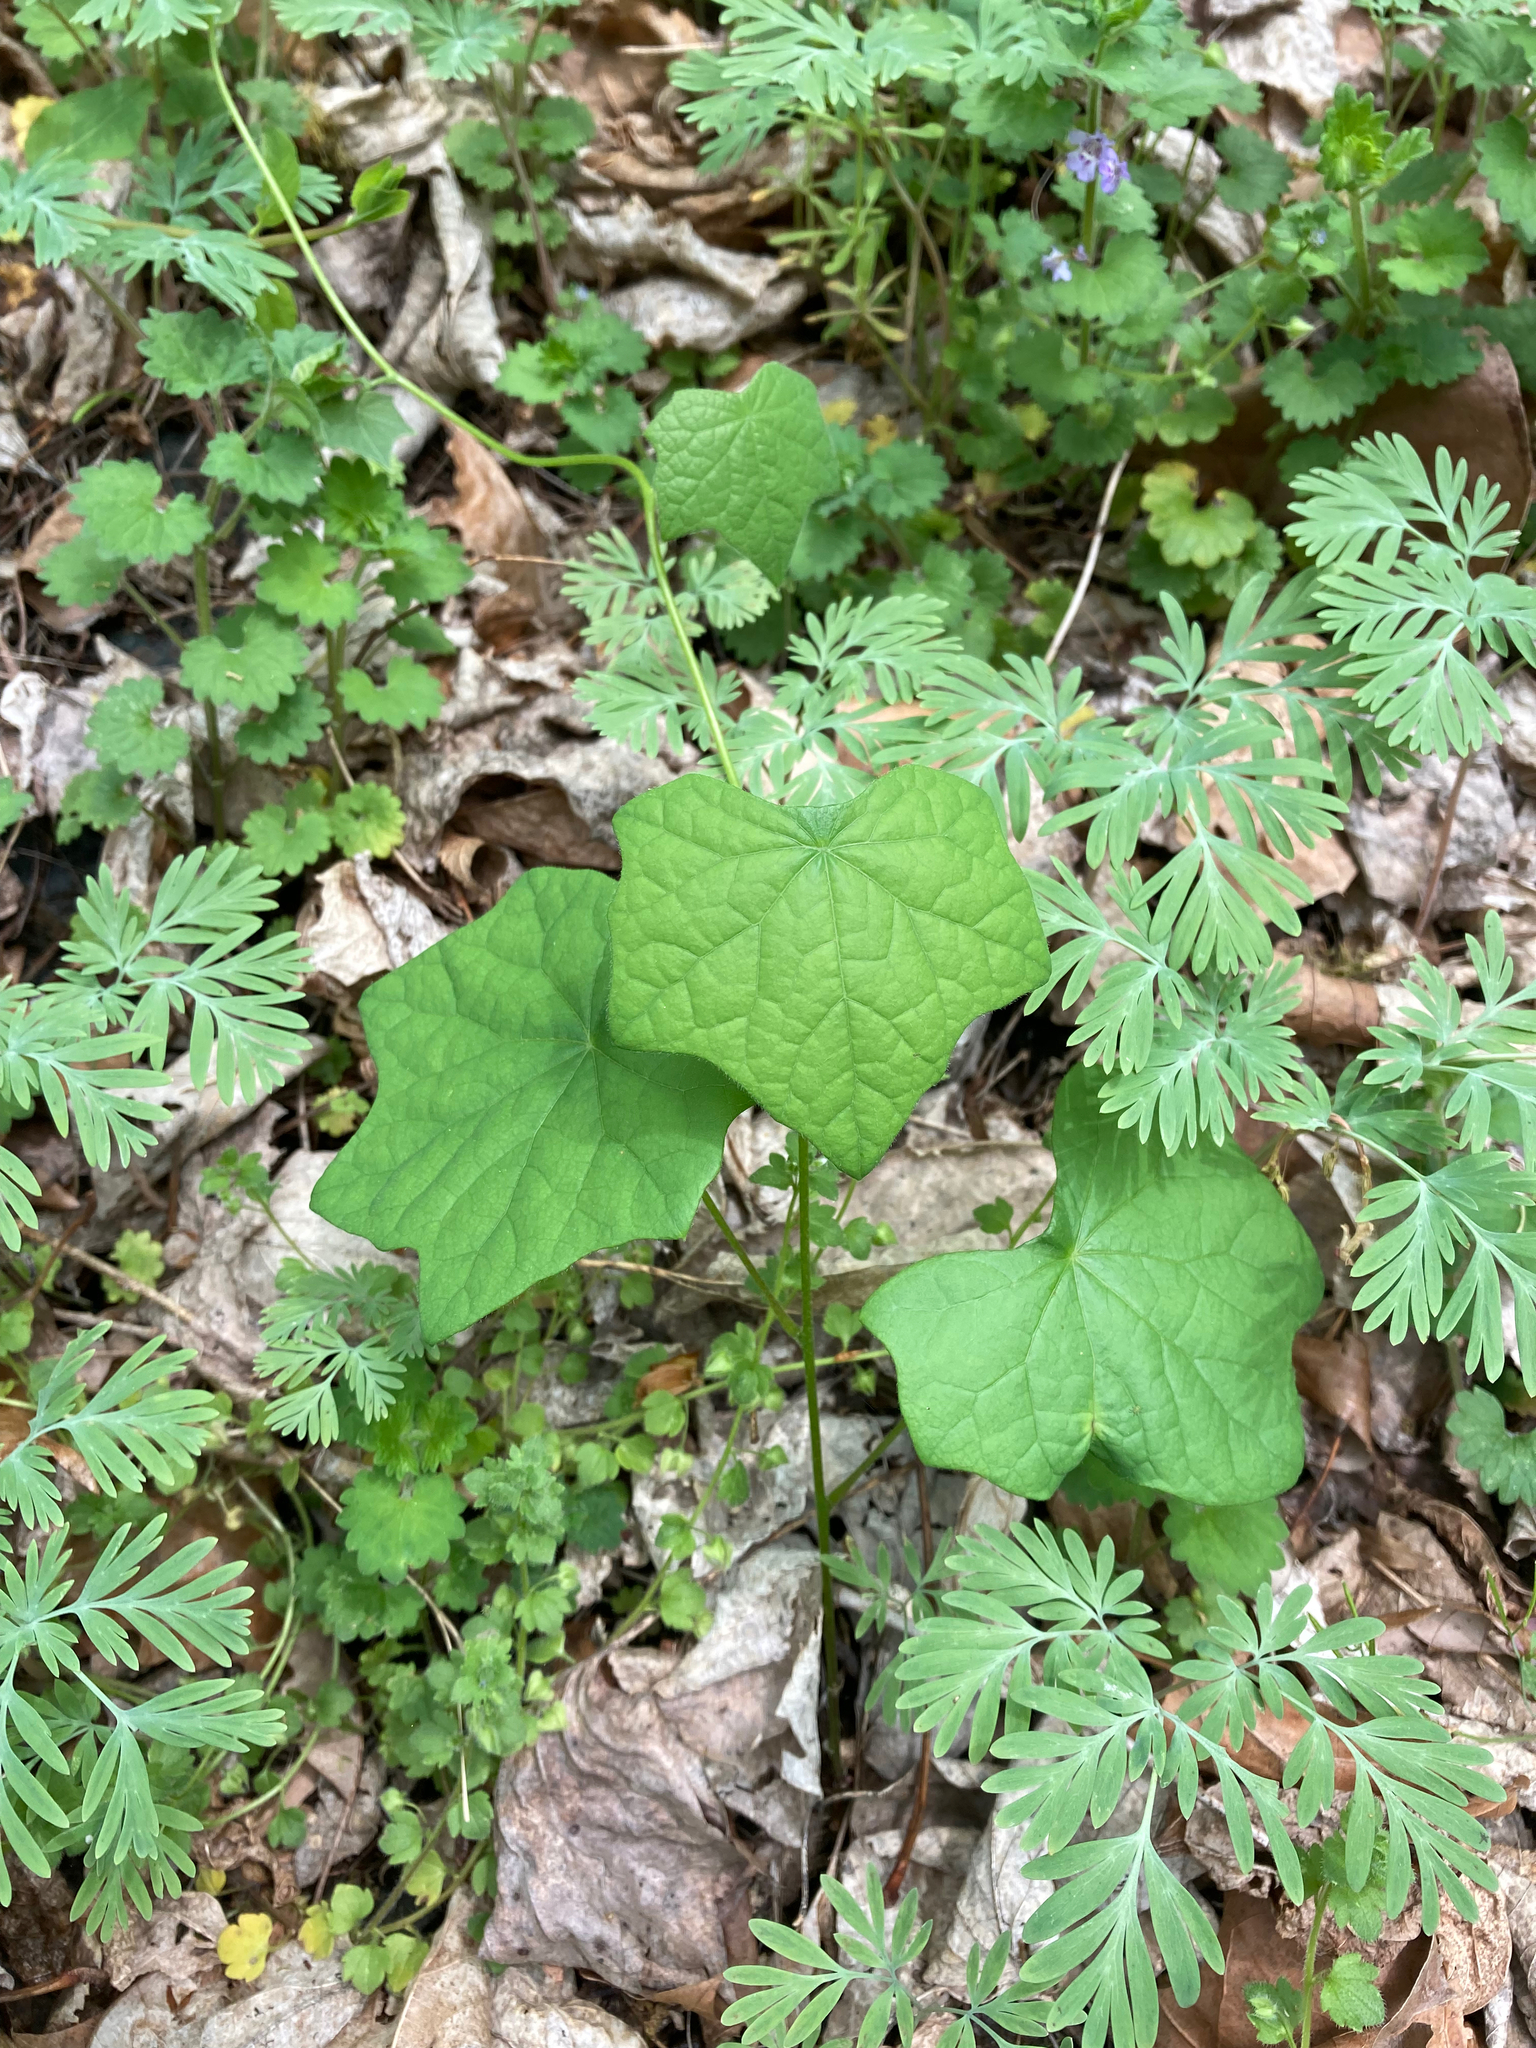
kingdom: Plantae
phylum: Tracheophyta
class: Magnoliopsida
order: Ranunculales
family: Menispermaceae
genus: Menispermum
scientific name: Menispermum canadense
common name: Moonseed
